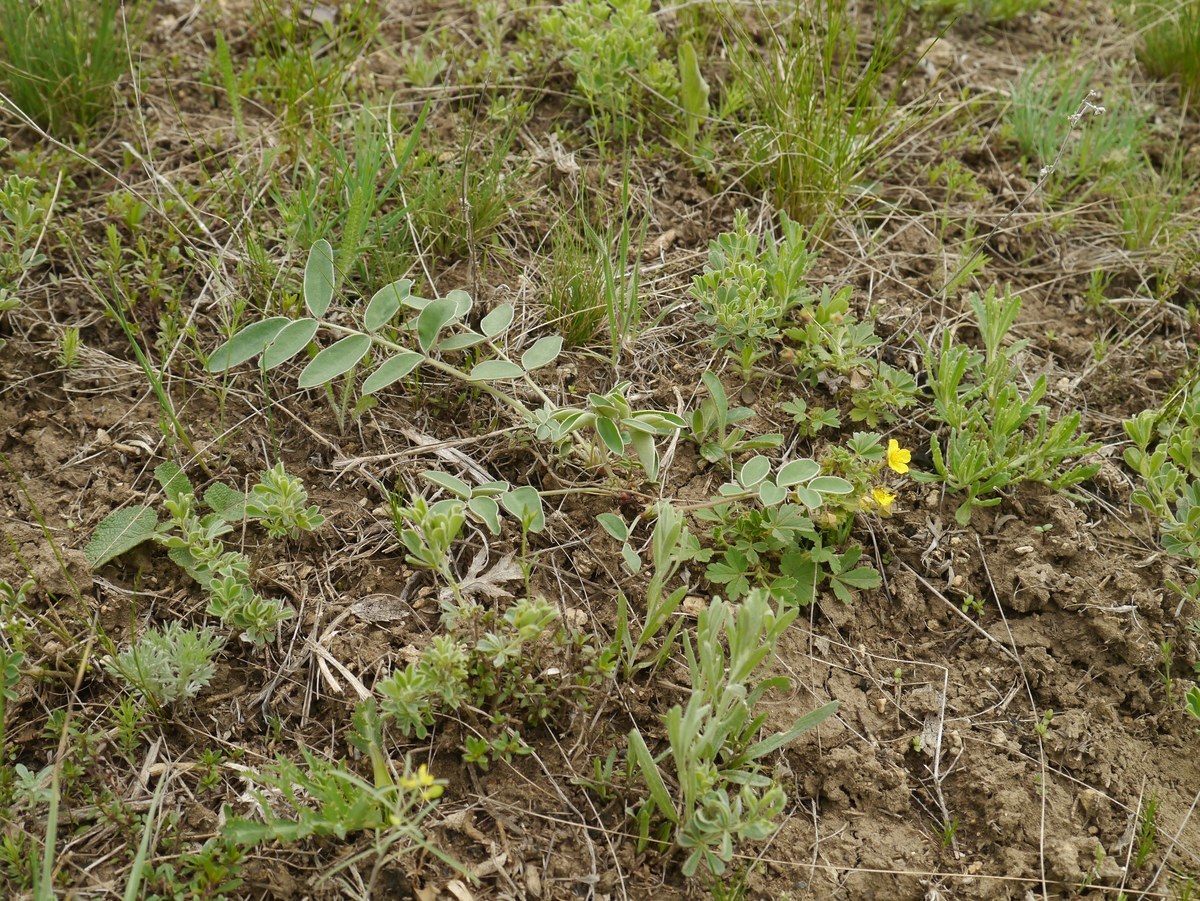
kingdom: Plantae
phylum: Tracheophyta
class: Magnoliopsida
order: Fabales
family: Fabaceae
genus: Hedysarum
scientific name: Hedysarum grandiflorum
